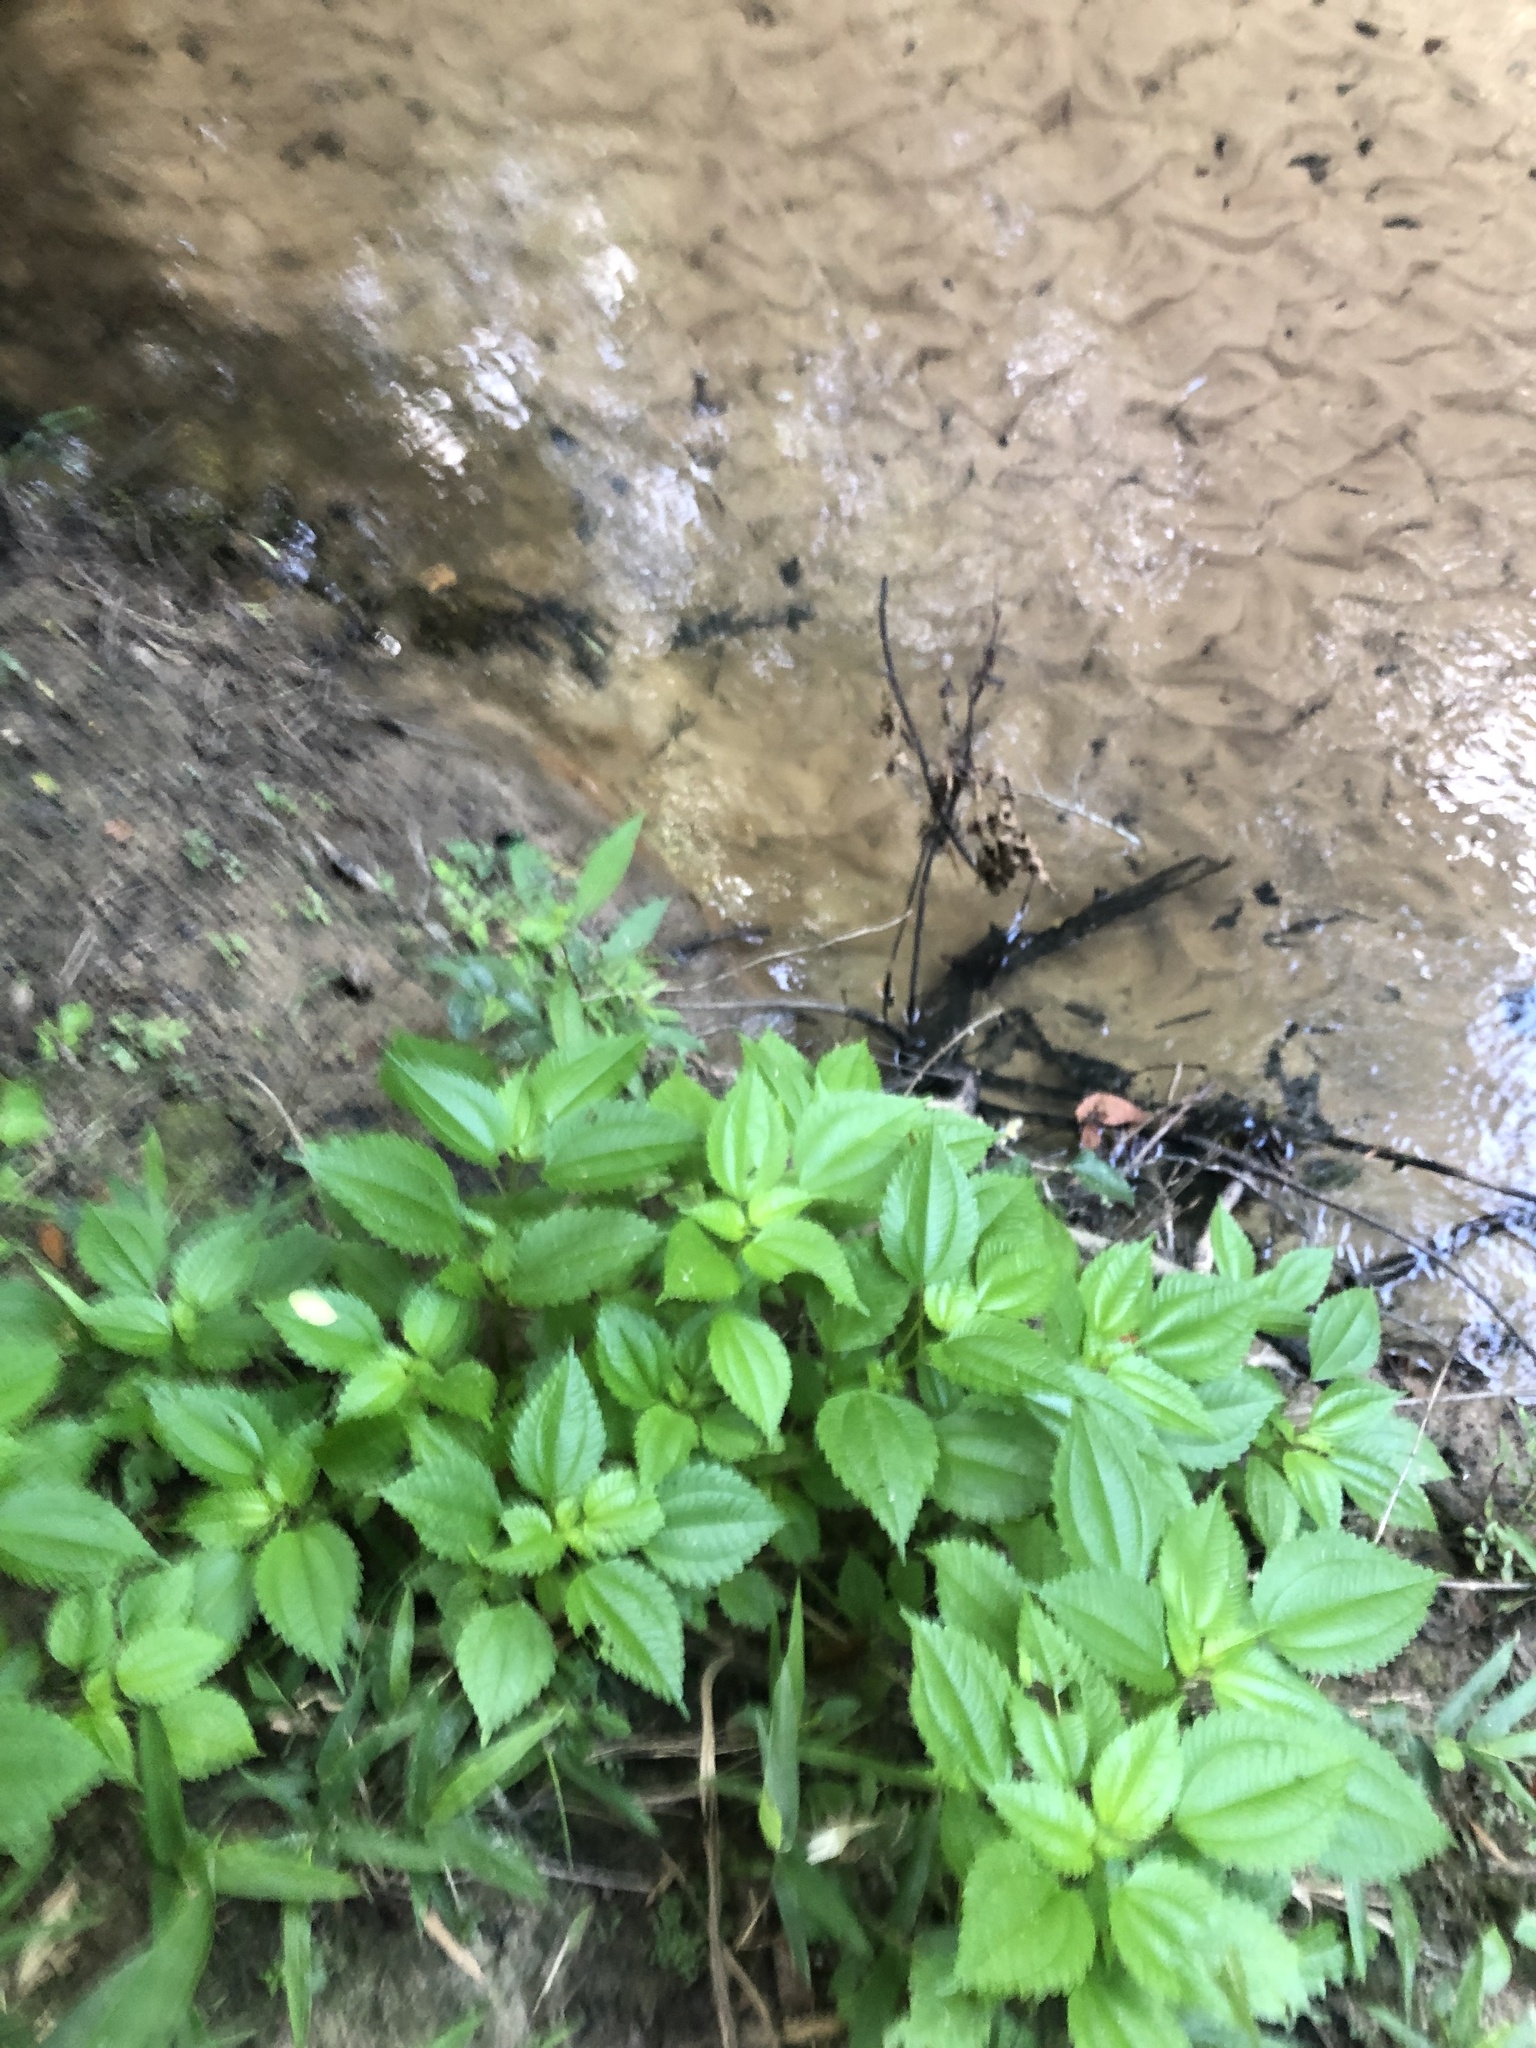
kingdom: Plantae
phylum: Tracheophyta
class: Magnoliopsida
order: Rosales
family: Urticaceae
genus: Pilea
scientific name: Pilea pumila
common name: Clearweed
